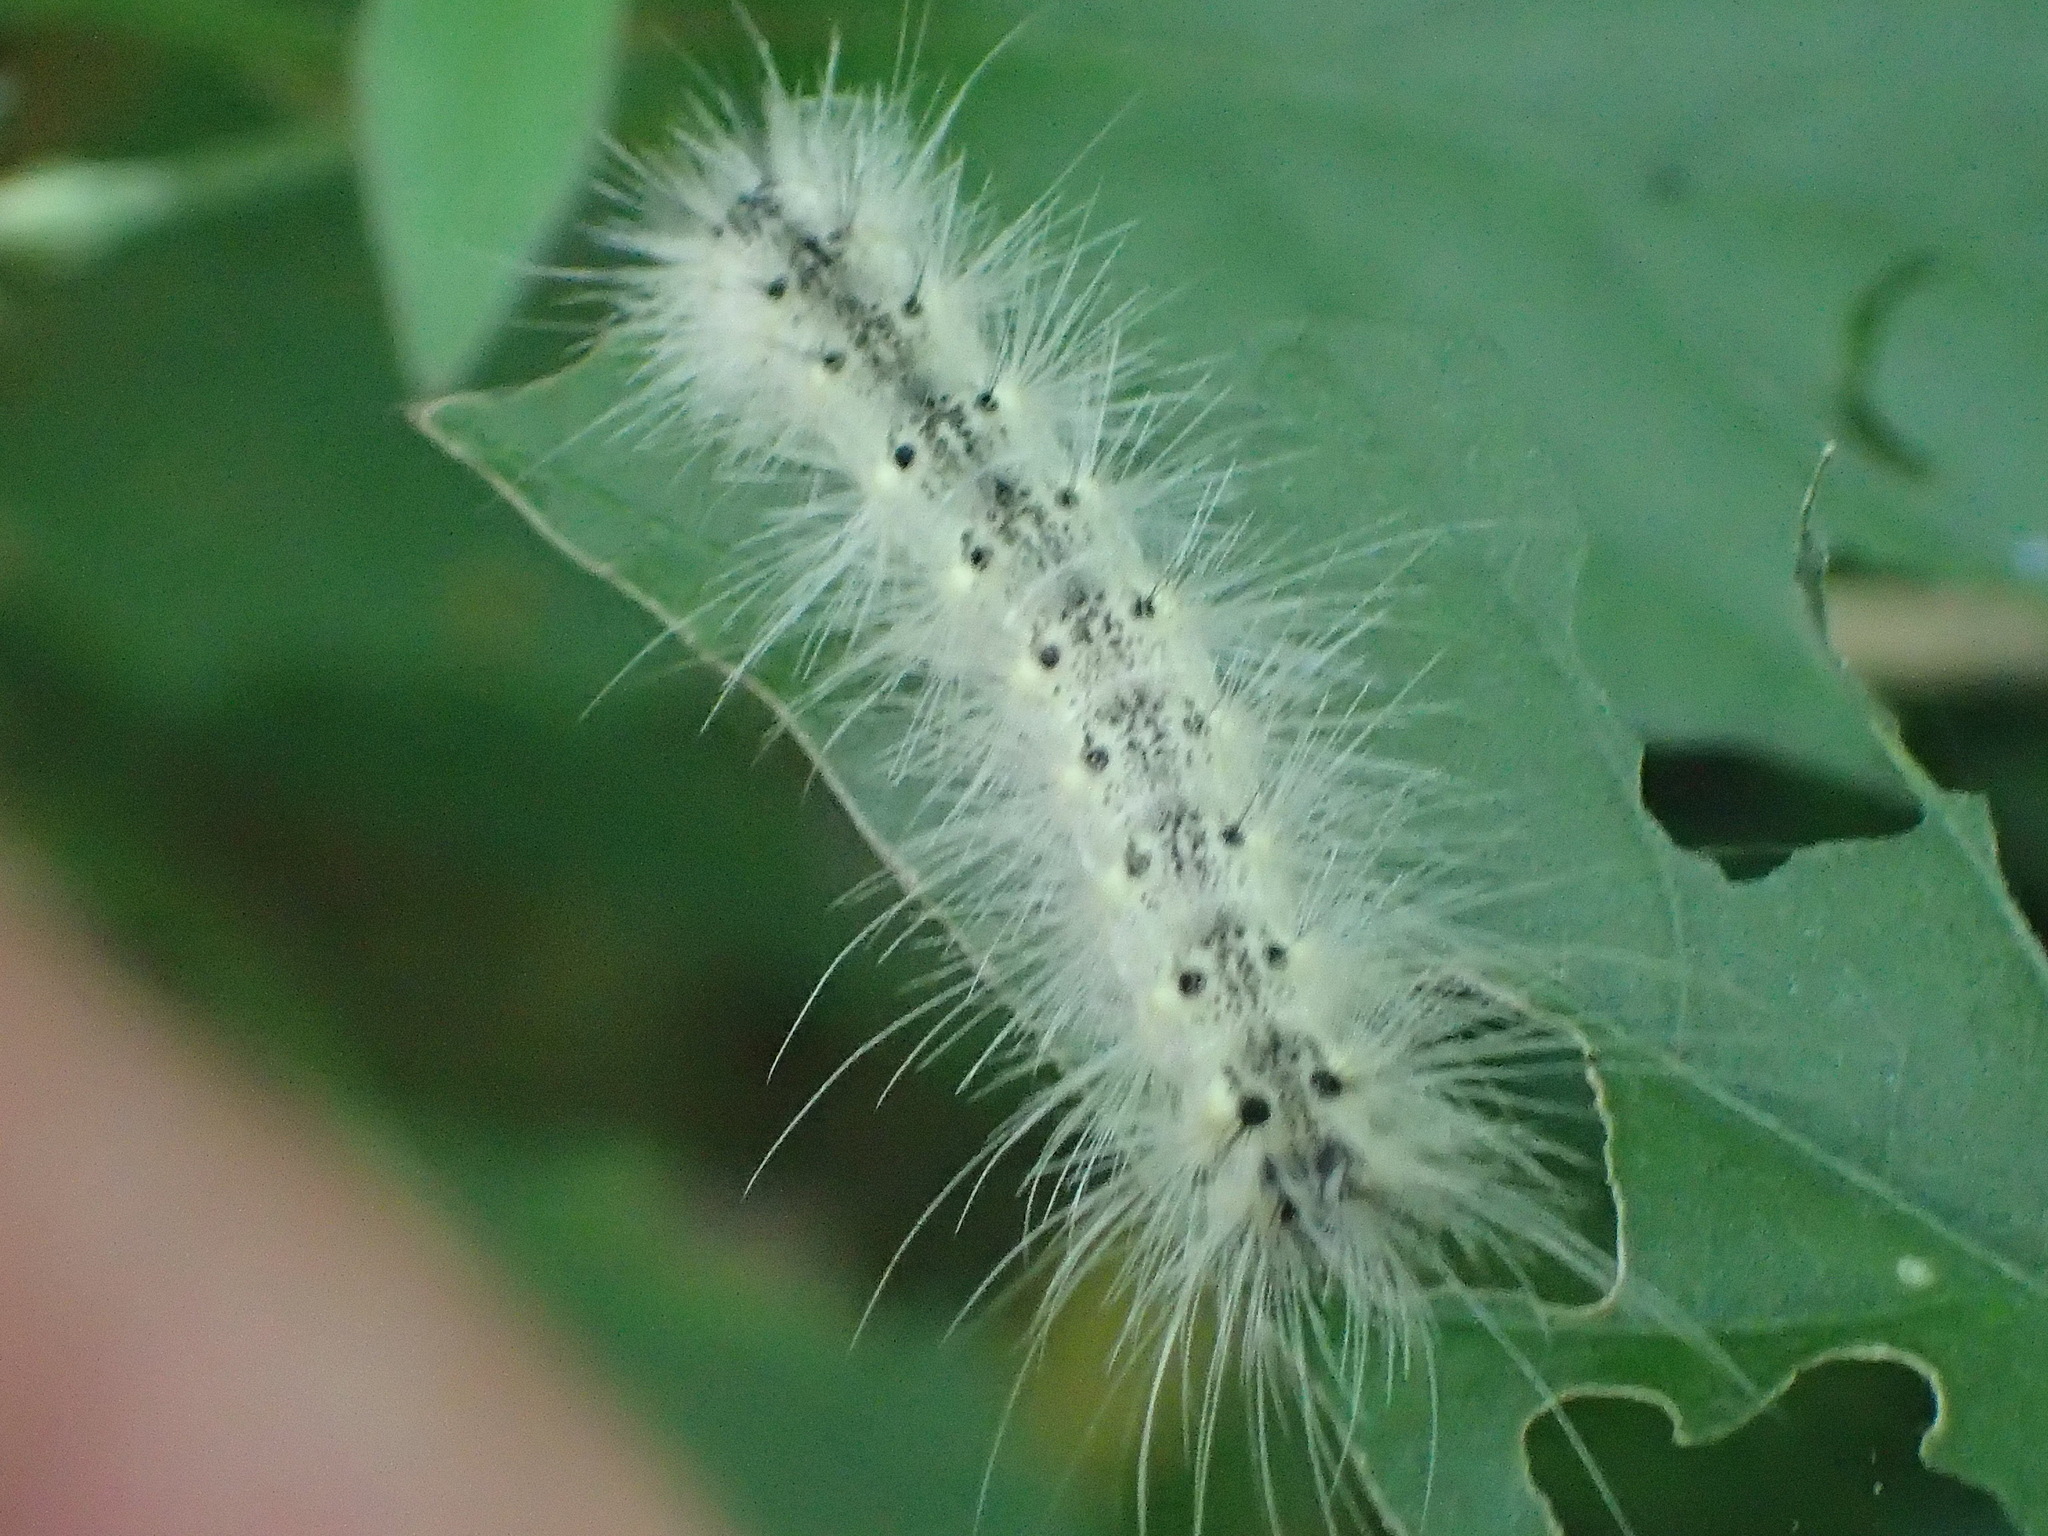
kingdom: Animalia
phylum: Arthropoda
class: Insecta
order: Lepidoptera
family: Erebidae
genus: Hyphantria
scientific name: Hyphantria cunea
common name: American white moth
